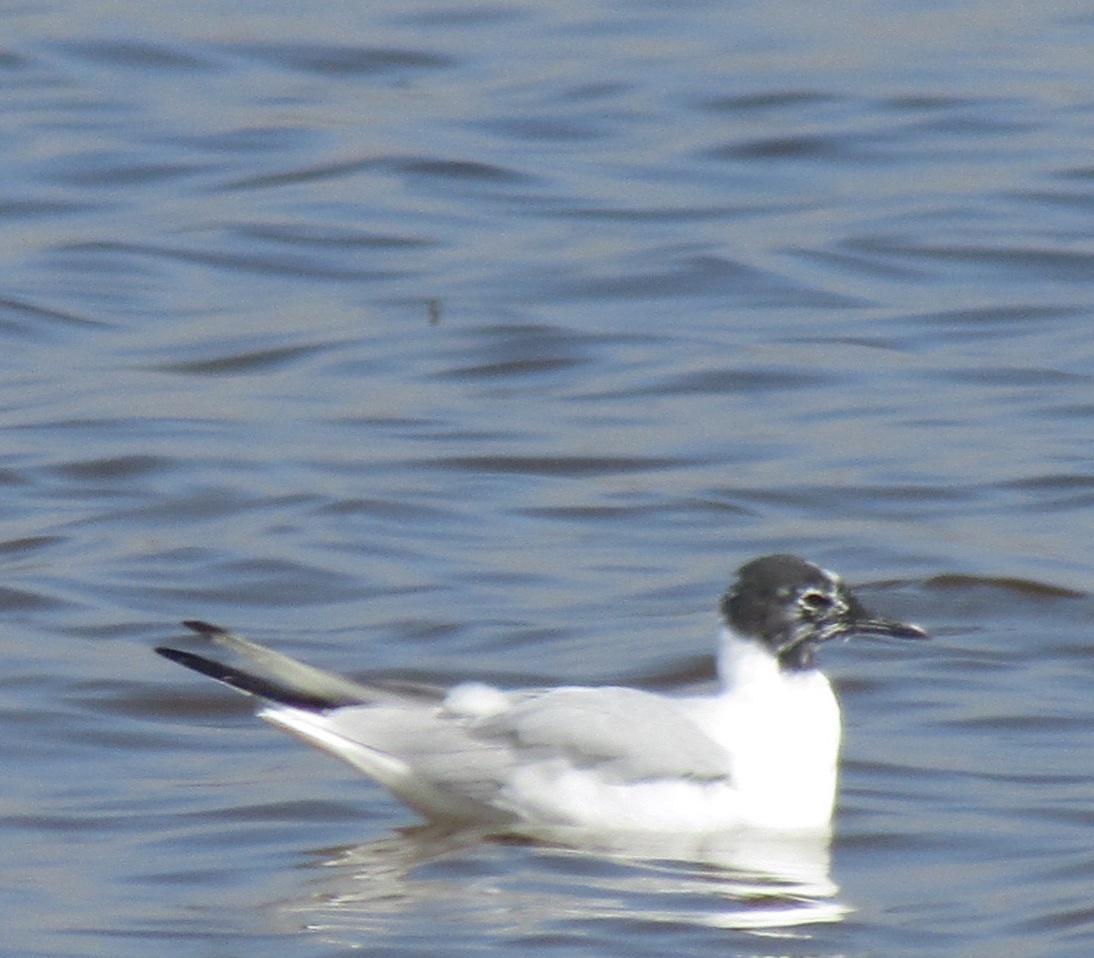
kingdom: Animalia
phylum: Chordata
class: Aves
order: Charadriiformes
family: Laridae
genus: Chroicocephalus
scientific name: Chroicocephalus philadelphia
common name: Bonaparte's gull
